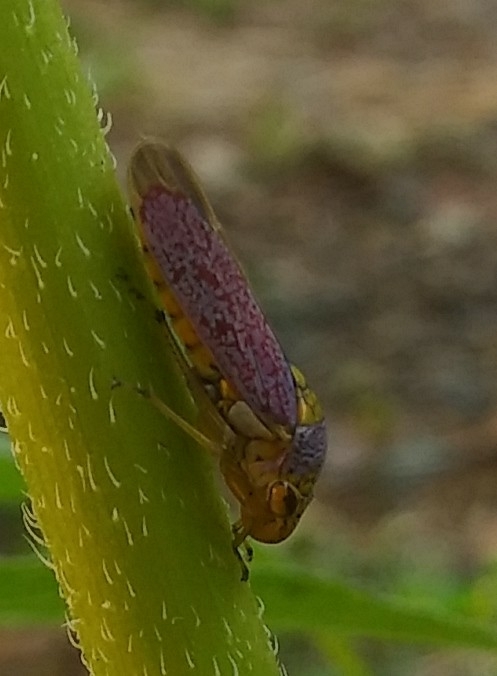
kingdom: Animalia
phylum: Arthropoda
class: Insecta
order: Hemiptera
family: Cicadellidae
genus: Oncometopia
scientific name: Oncometopia orbona
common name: Broad-headed sharpshooter
